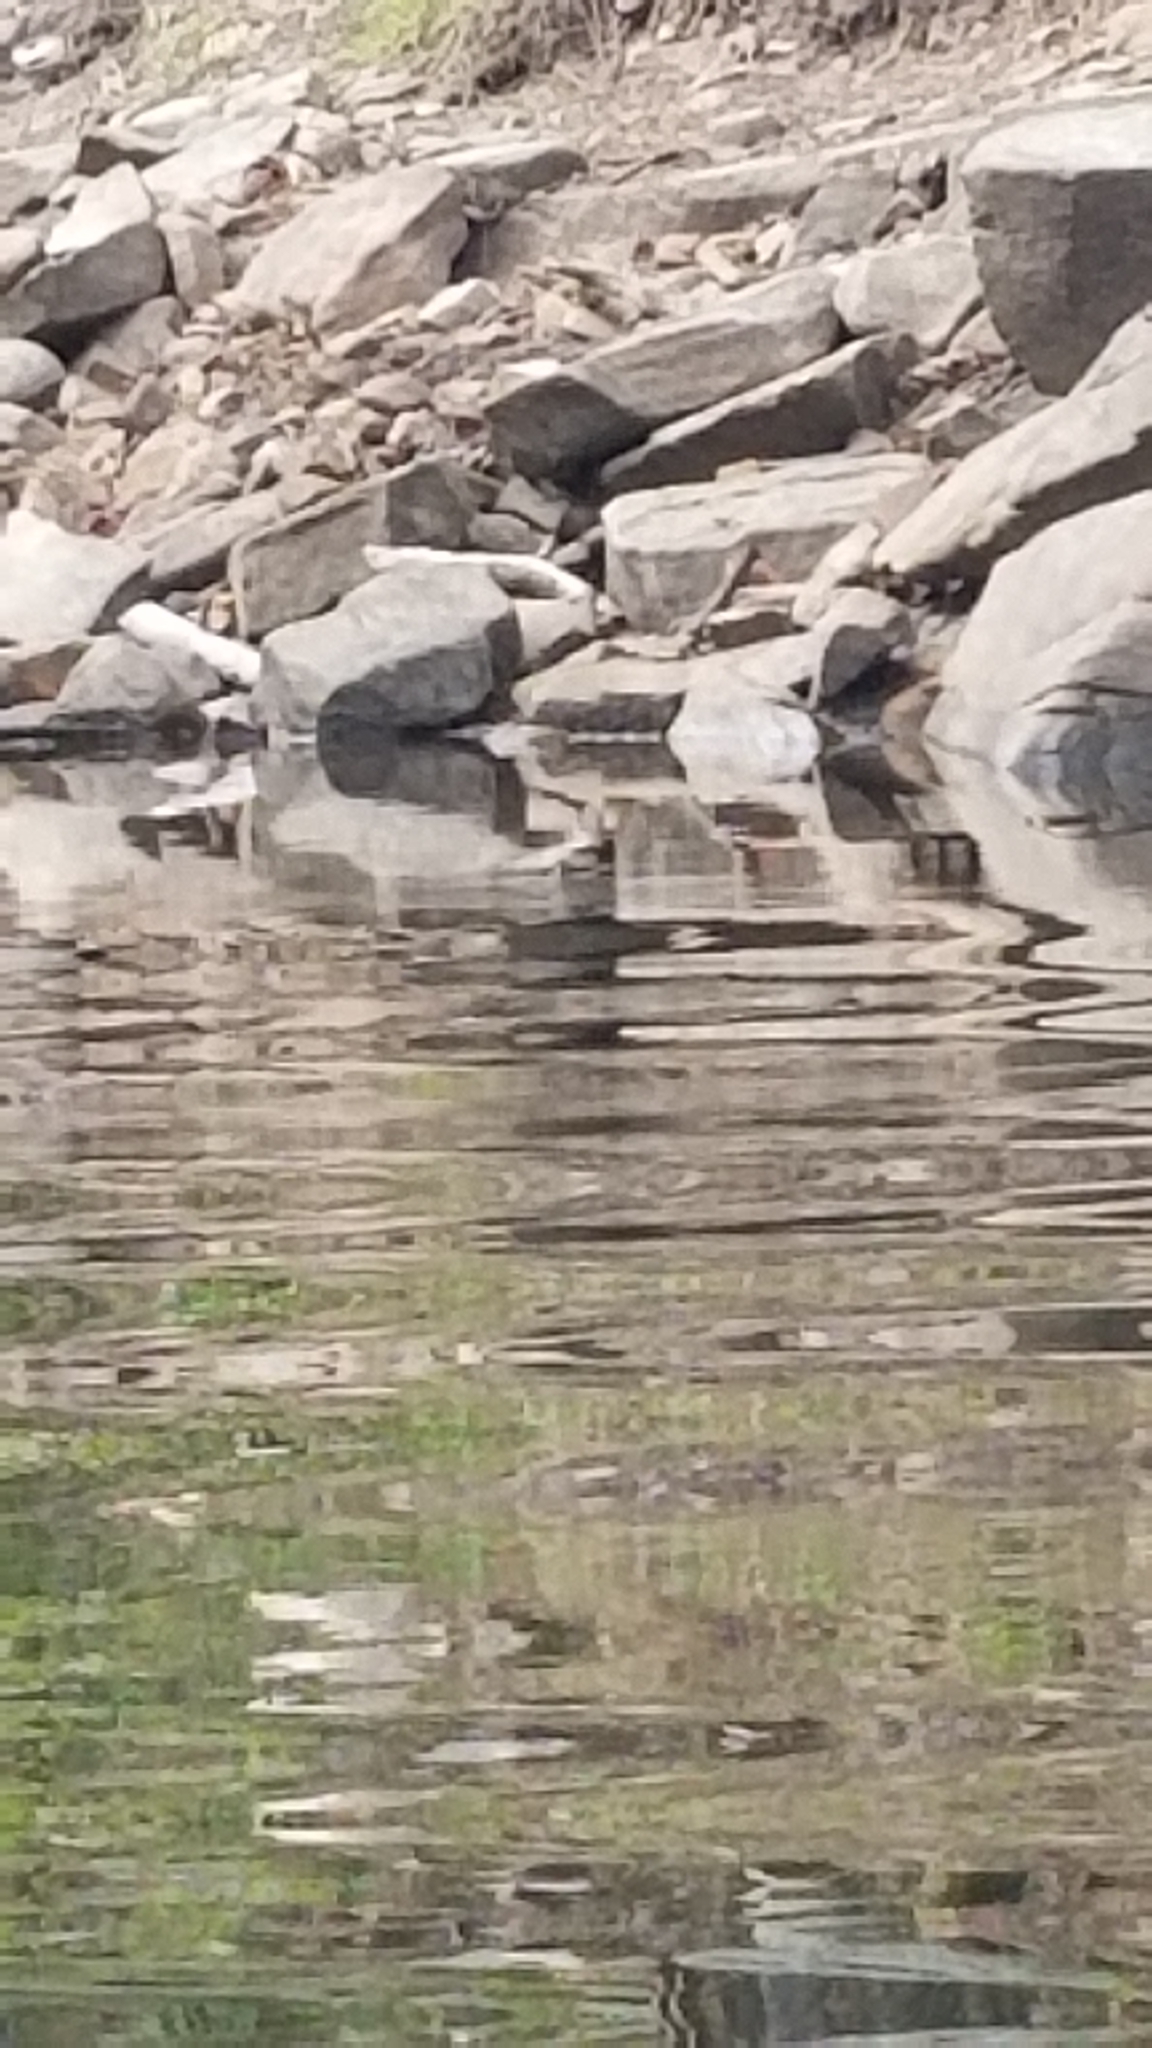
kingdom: Animalia
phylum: Chordata
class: Aves
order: Passeriformes
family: Tyrannidae
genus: Sayornis
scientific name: Sayornis nigricans
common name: Black phoebe
